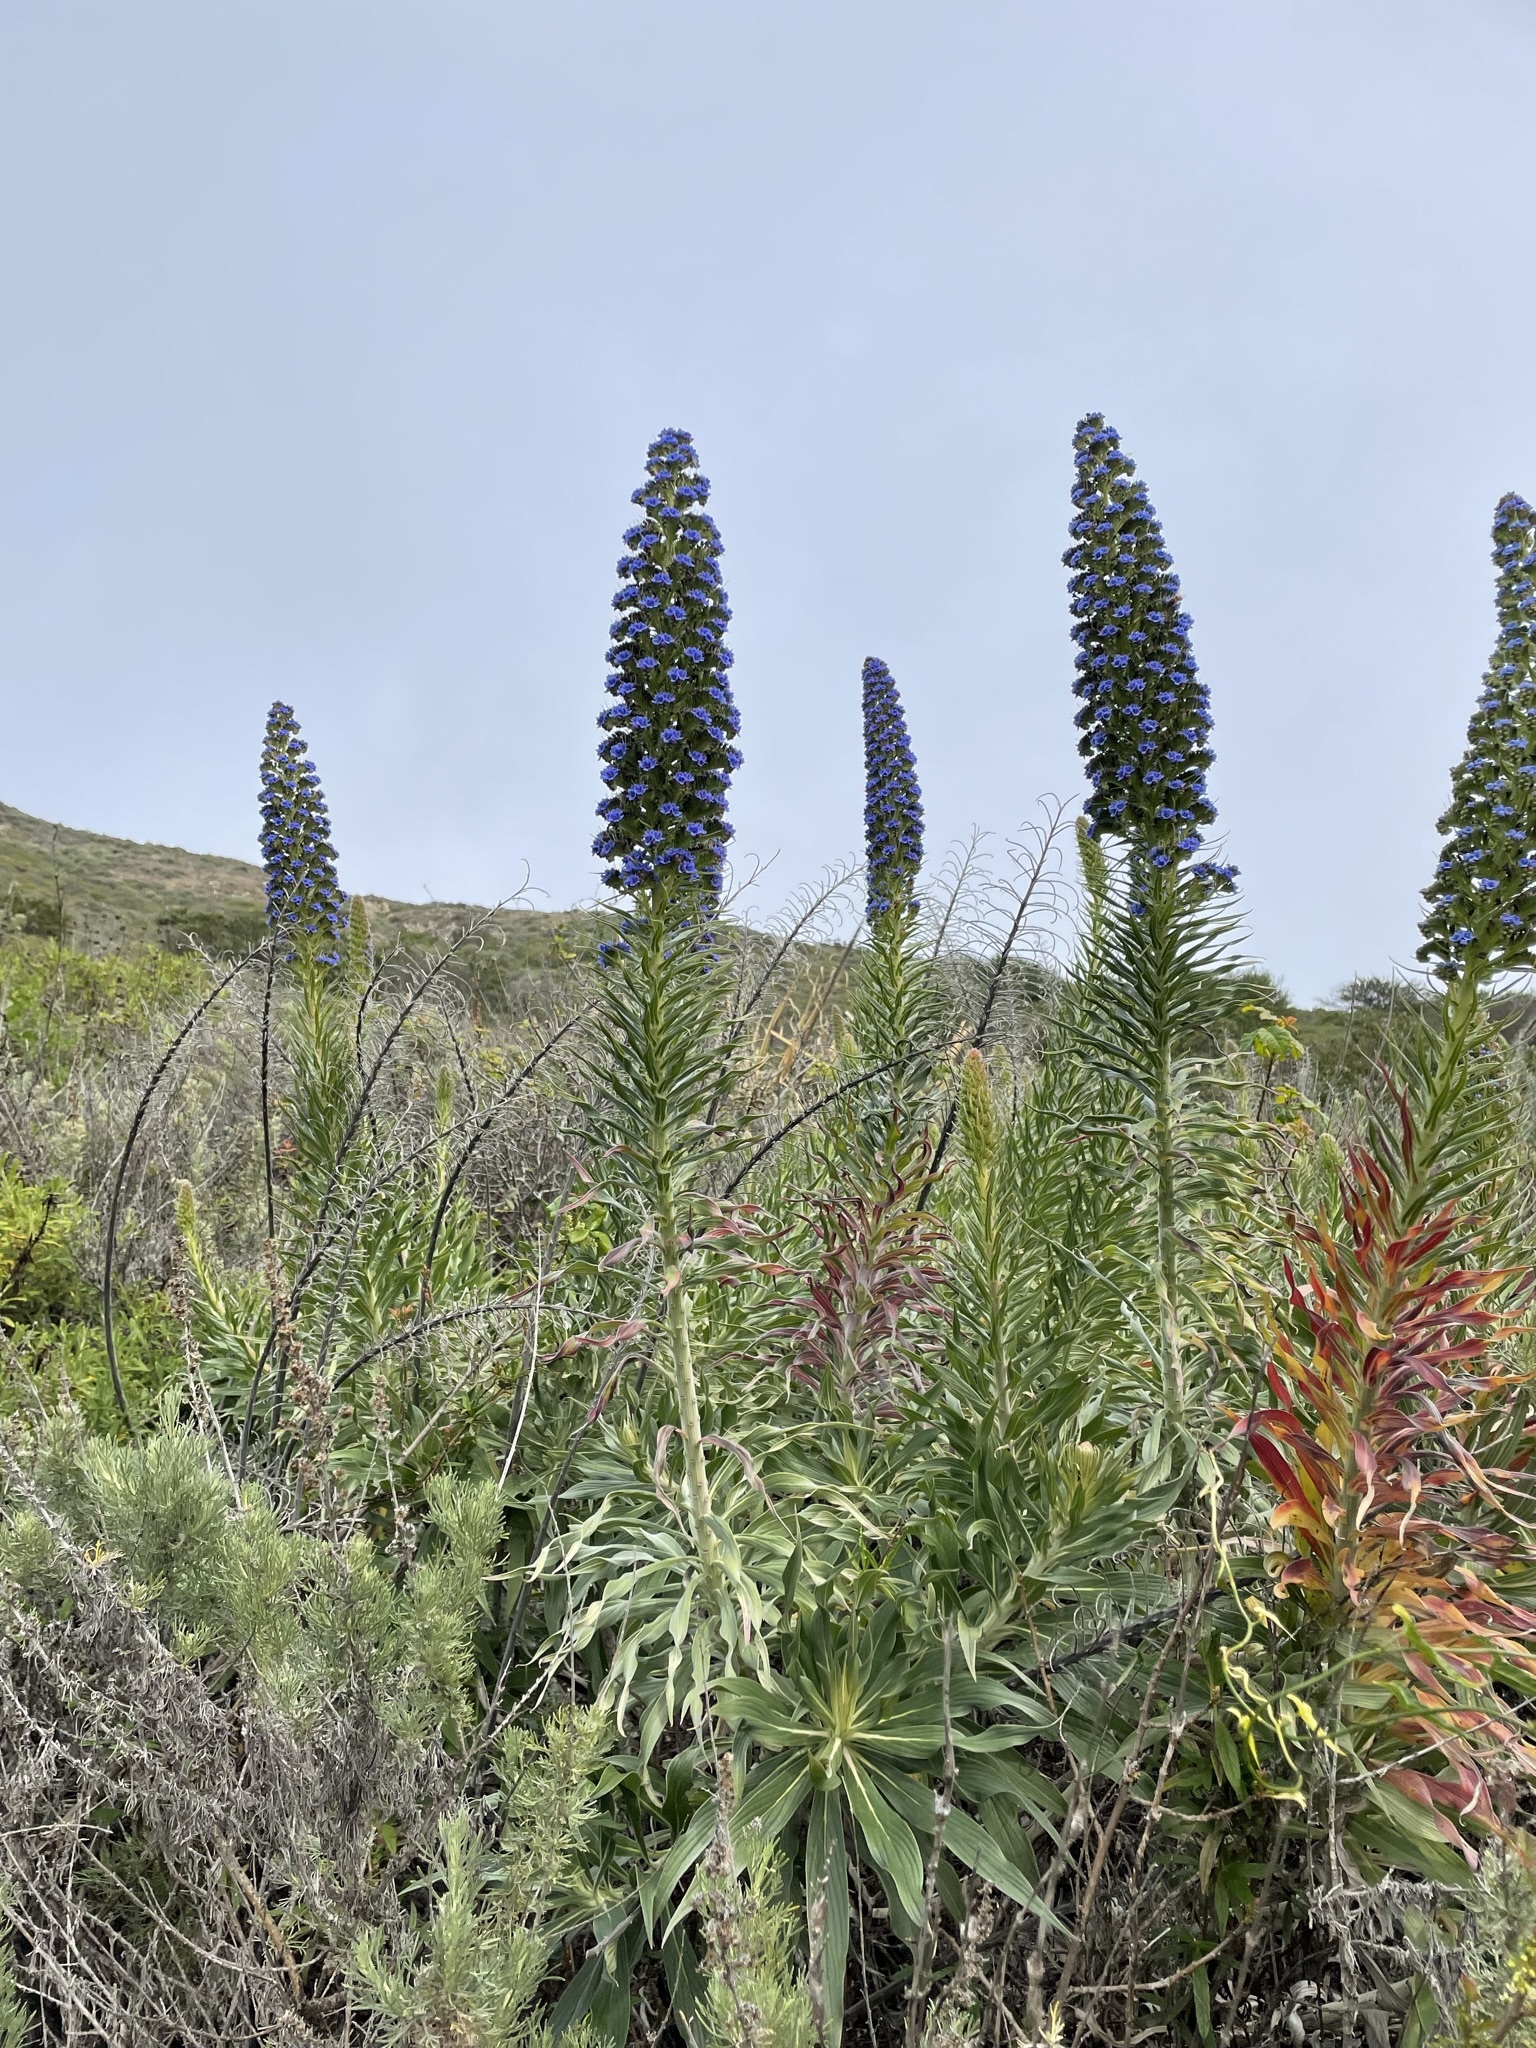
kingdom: Plantae
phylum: Tracheophyta
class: Magnoliopsida
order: Boraginales
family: Boraginaceae
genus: Echium
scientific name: Echium candicans
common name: Pride of madeira
